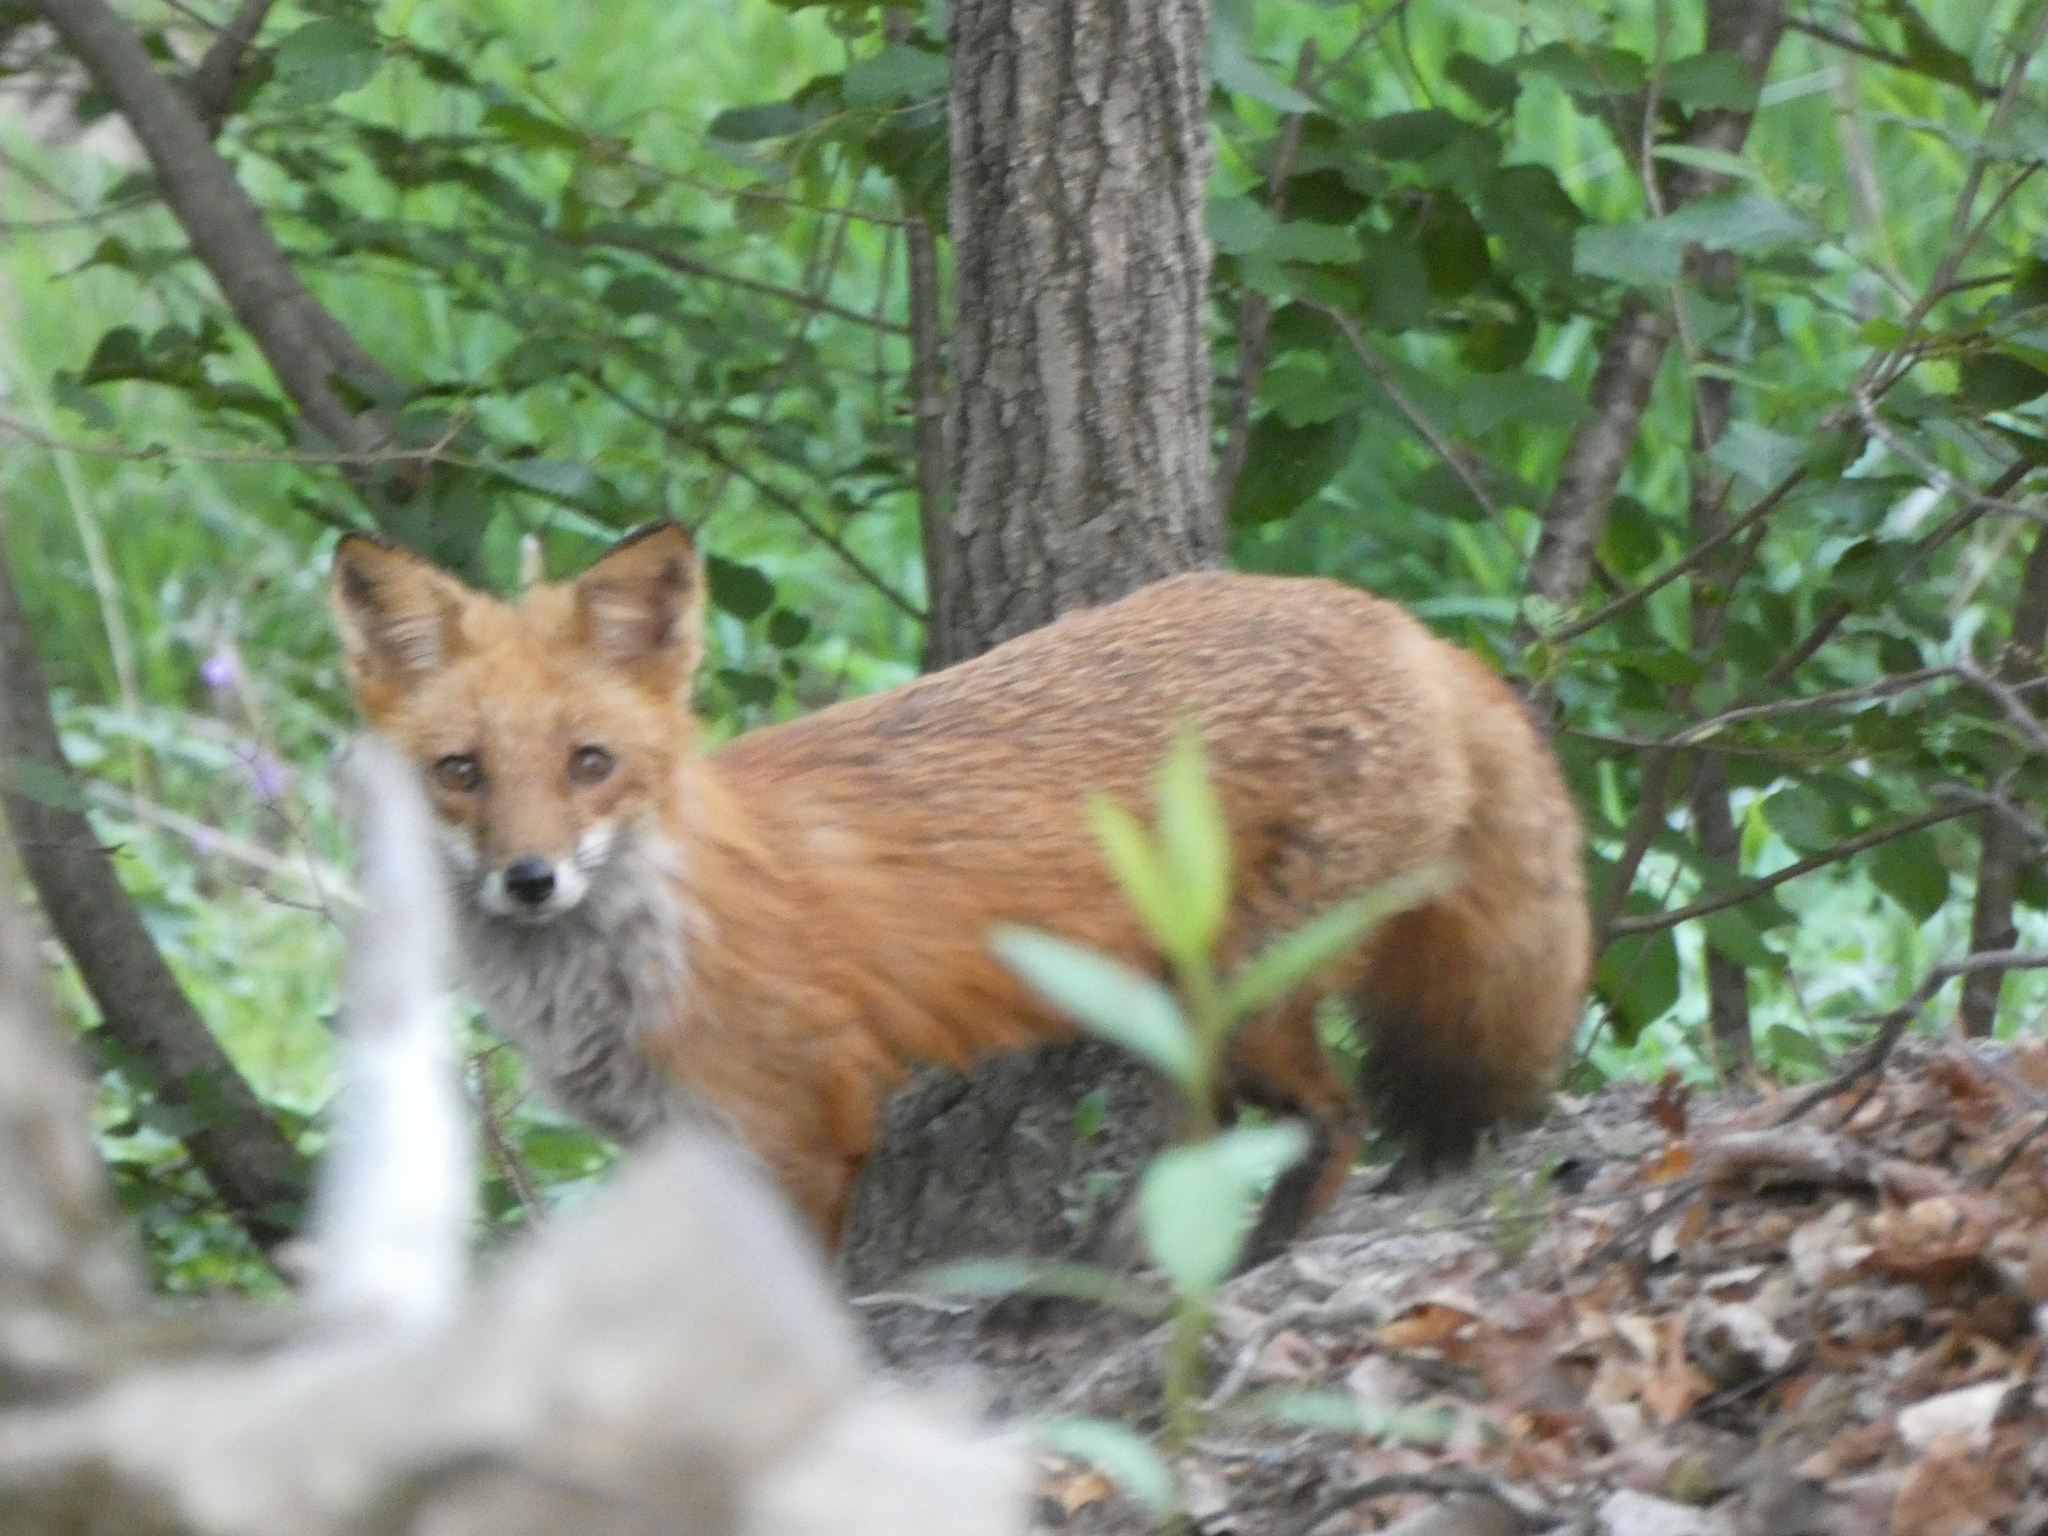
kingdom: Animalia
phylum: Chordata
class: Mammalia
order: Carnivora
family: Canidae
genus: Vulpes
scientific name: Vulpes vulpes
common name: Red fox
